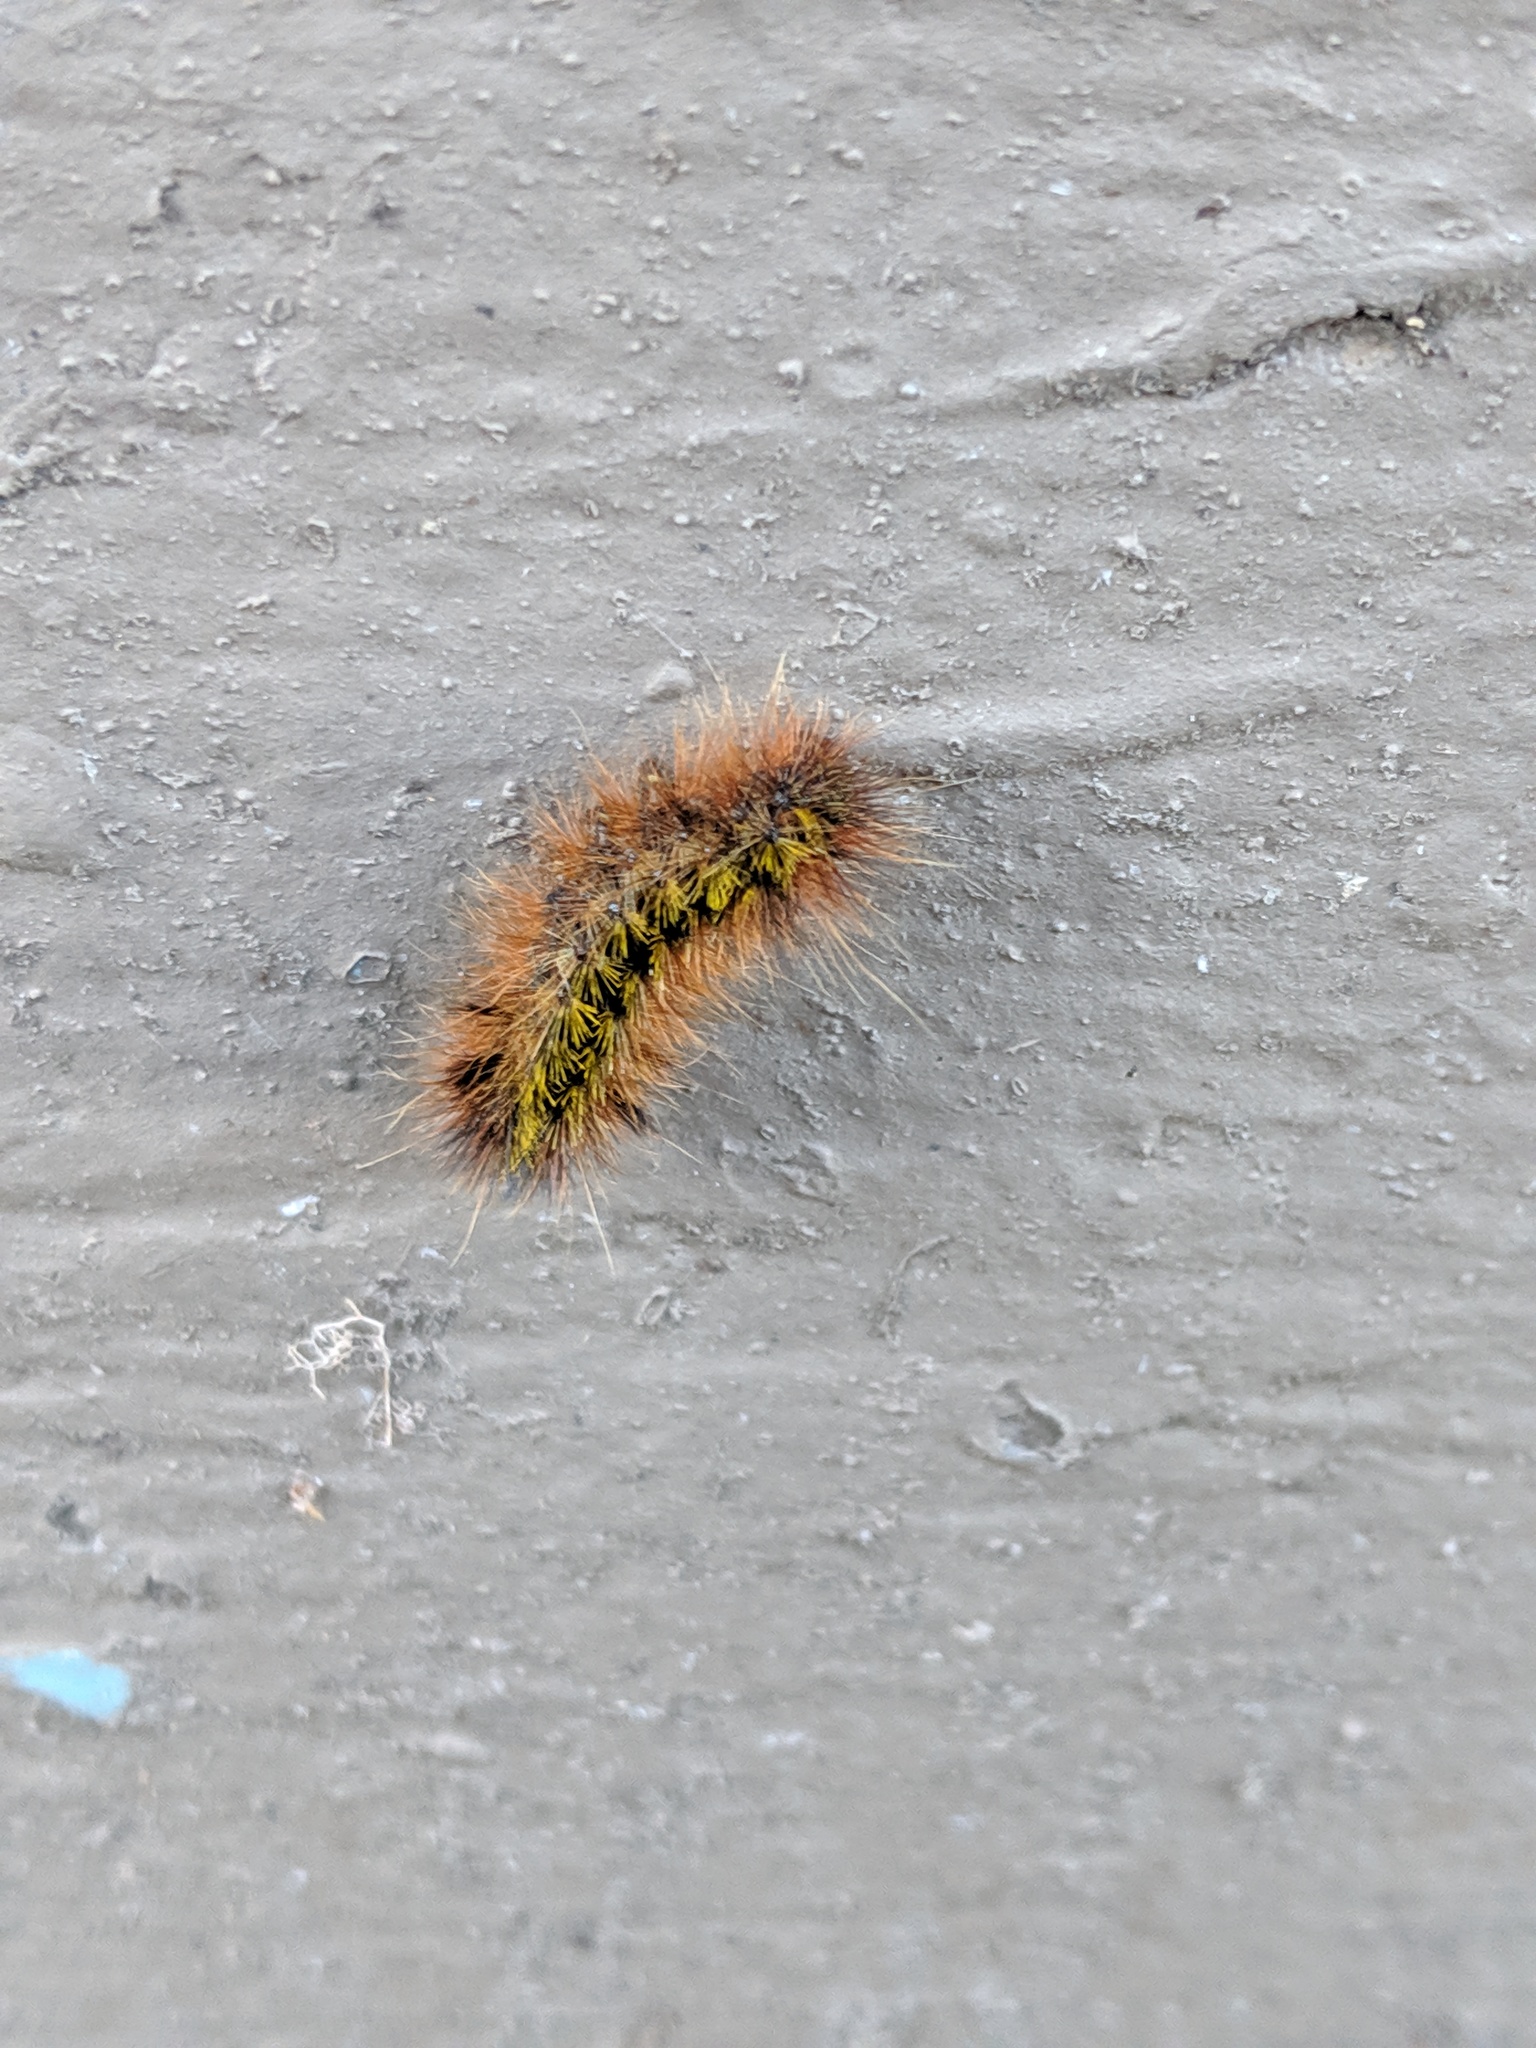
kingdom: Animalia
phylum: Arthropoda
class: Insecta
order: Lepidoptera
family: Erebidae
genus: Lophocampa
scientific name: Lophocampa argentata
